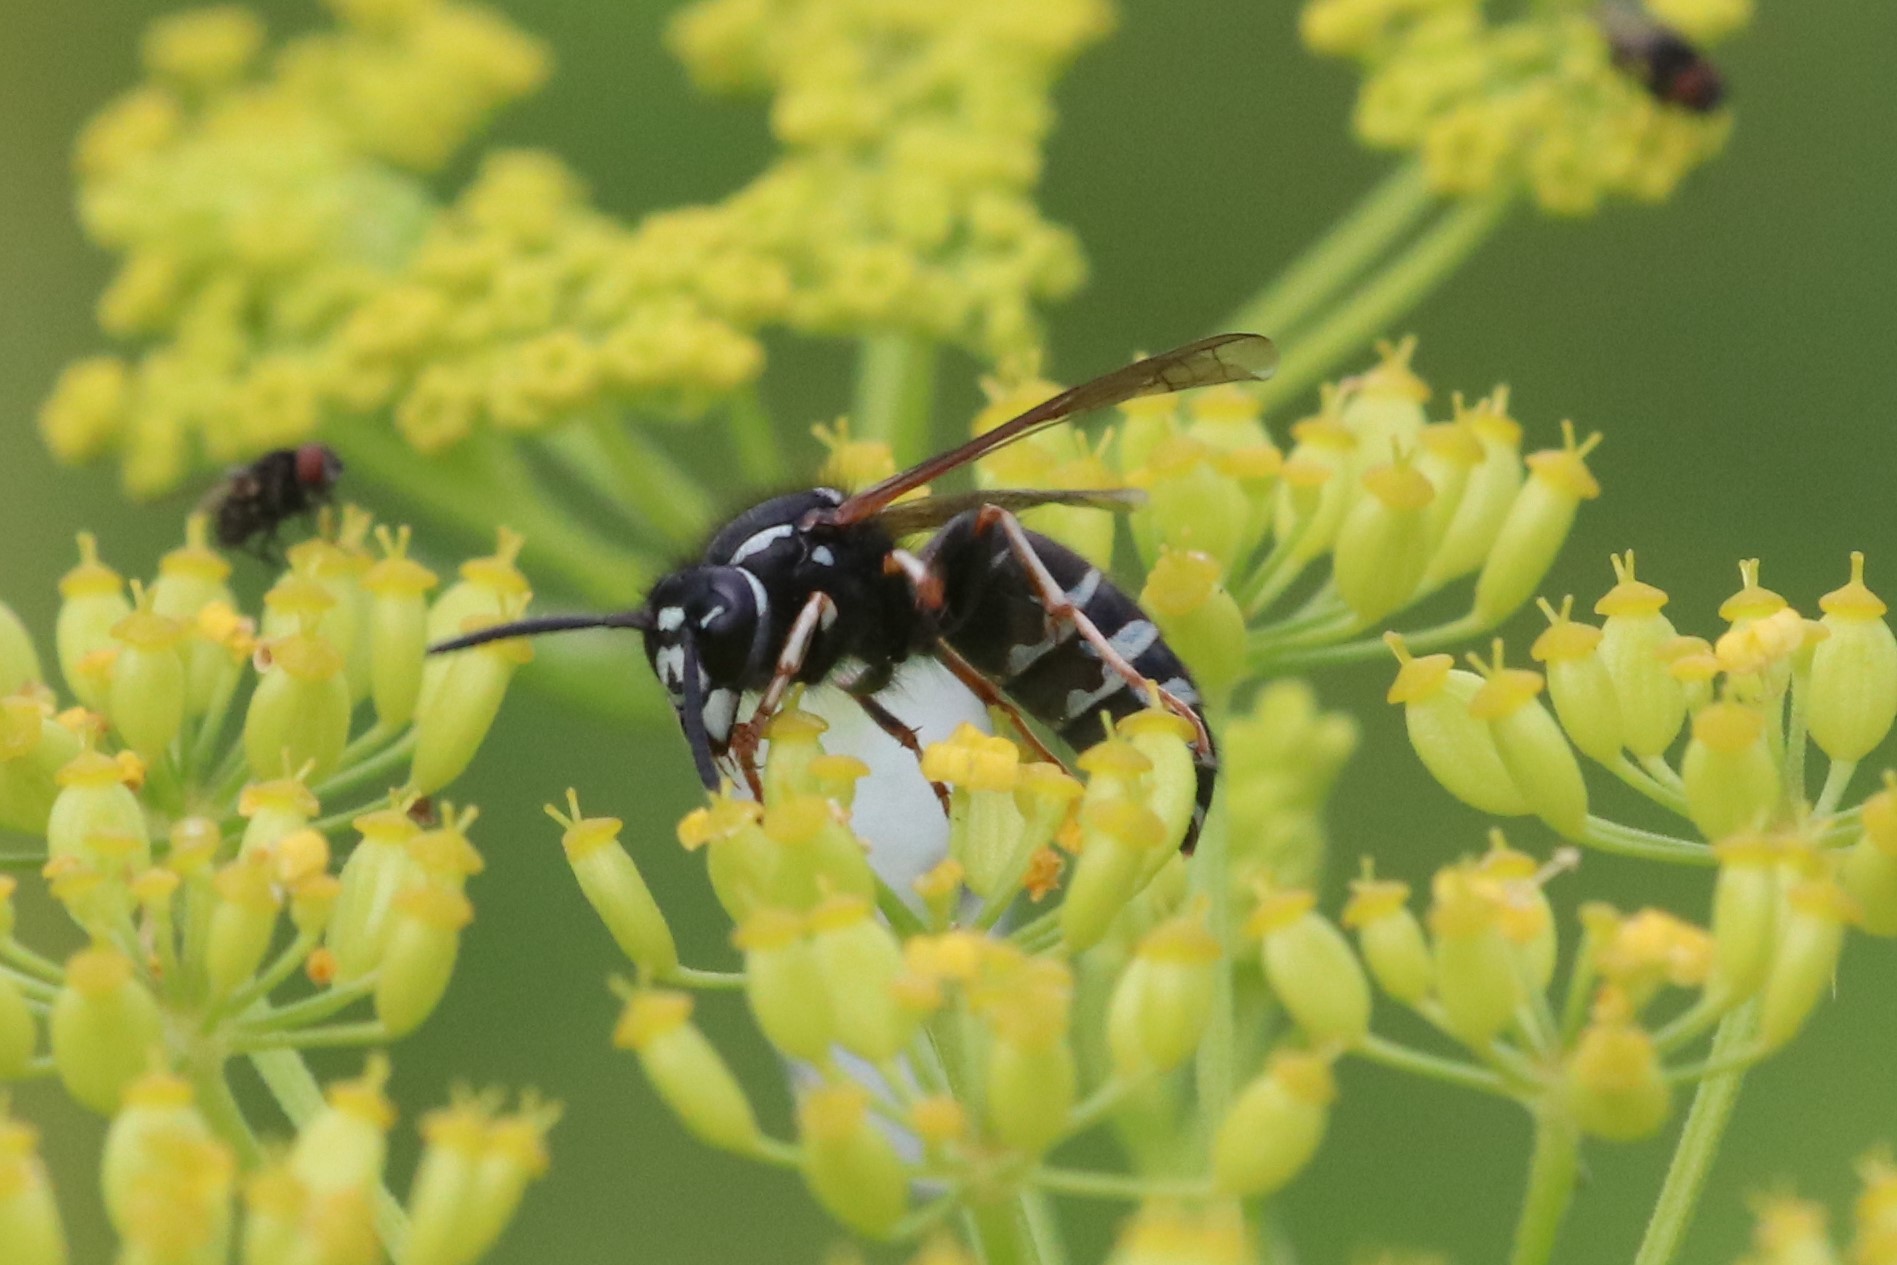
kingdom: Animalia
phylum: Arthropoda
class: Insecta
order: Hymenoptera
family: Vespidae
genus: Vespula
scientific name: Vespula consobrina
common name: Blackjacket
